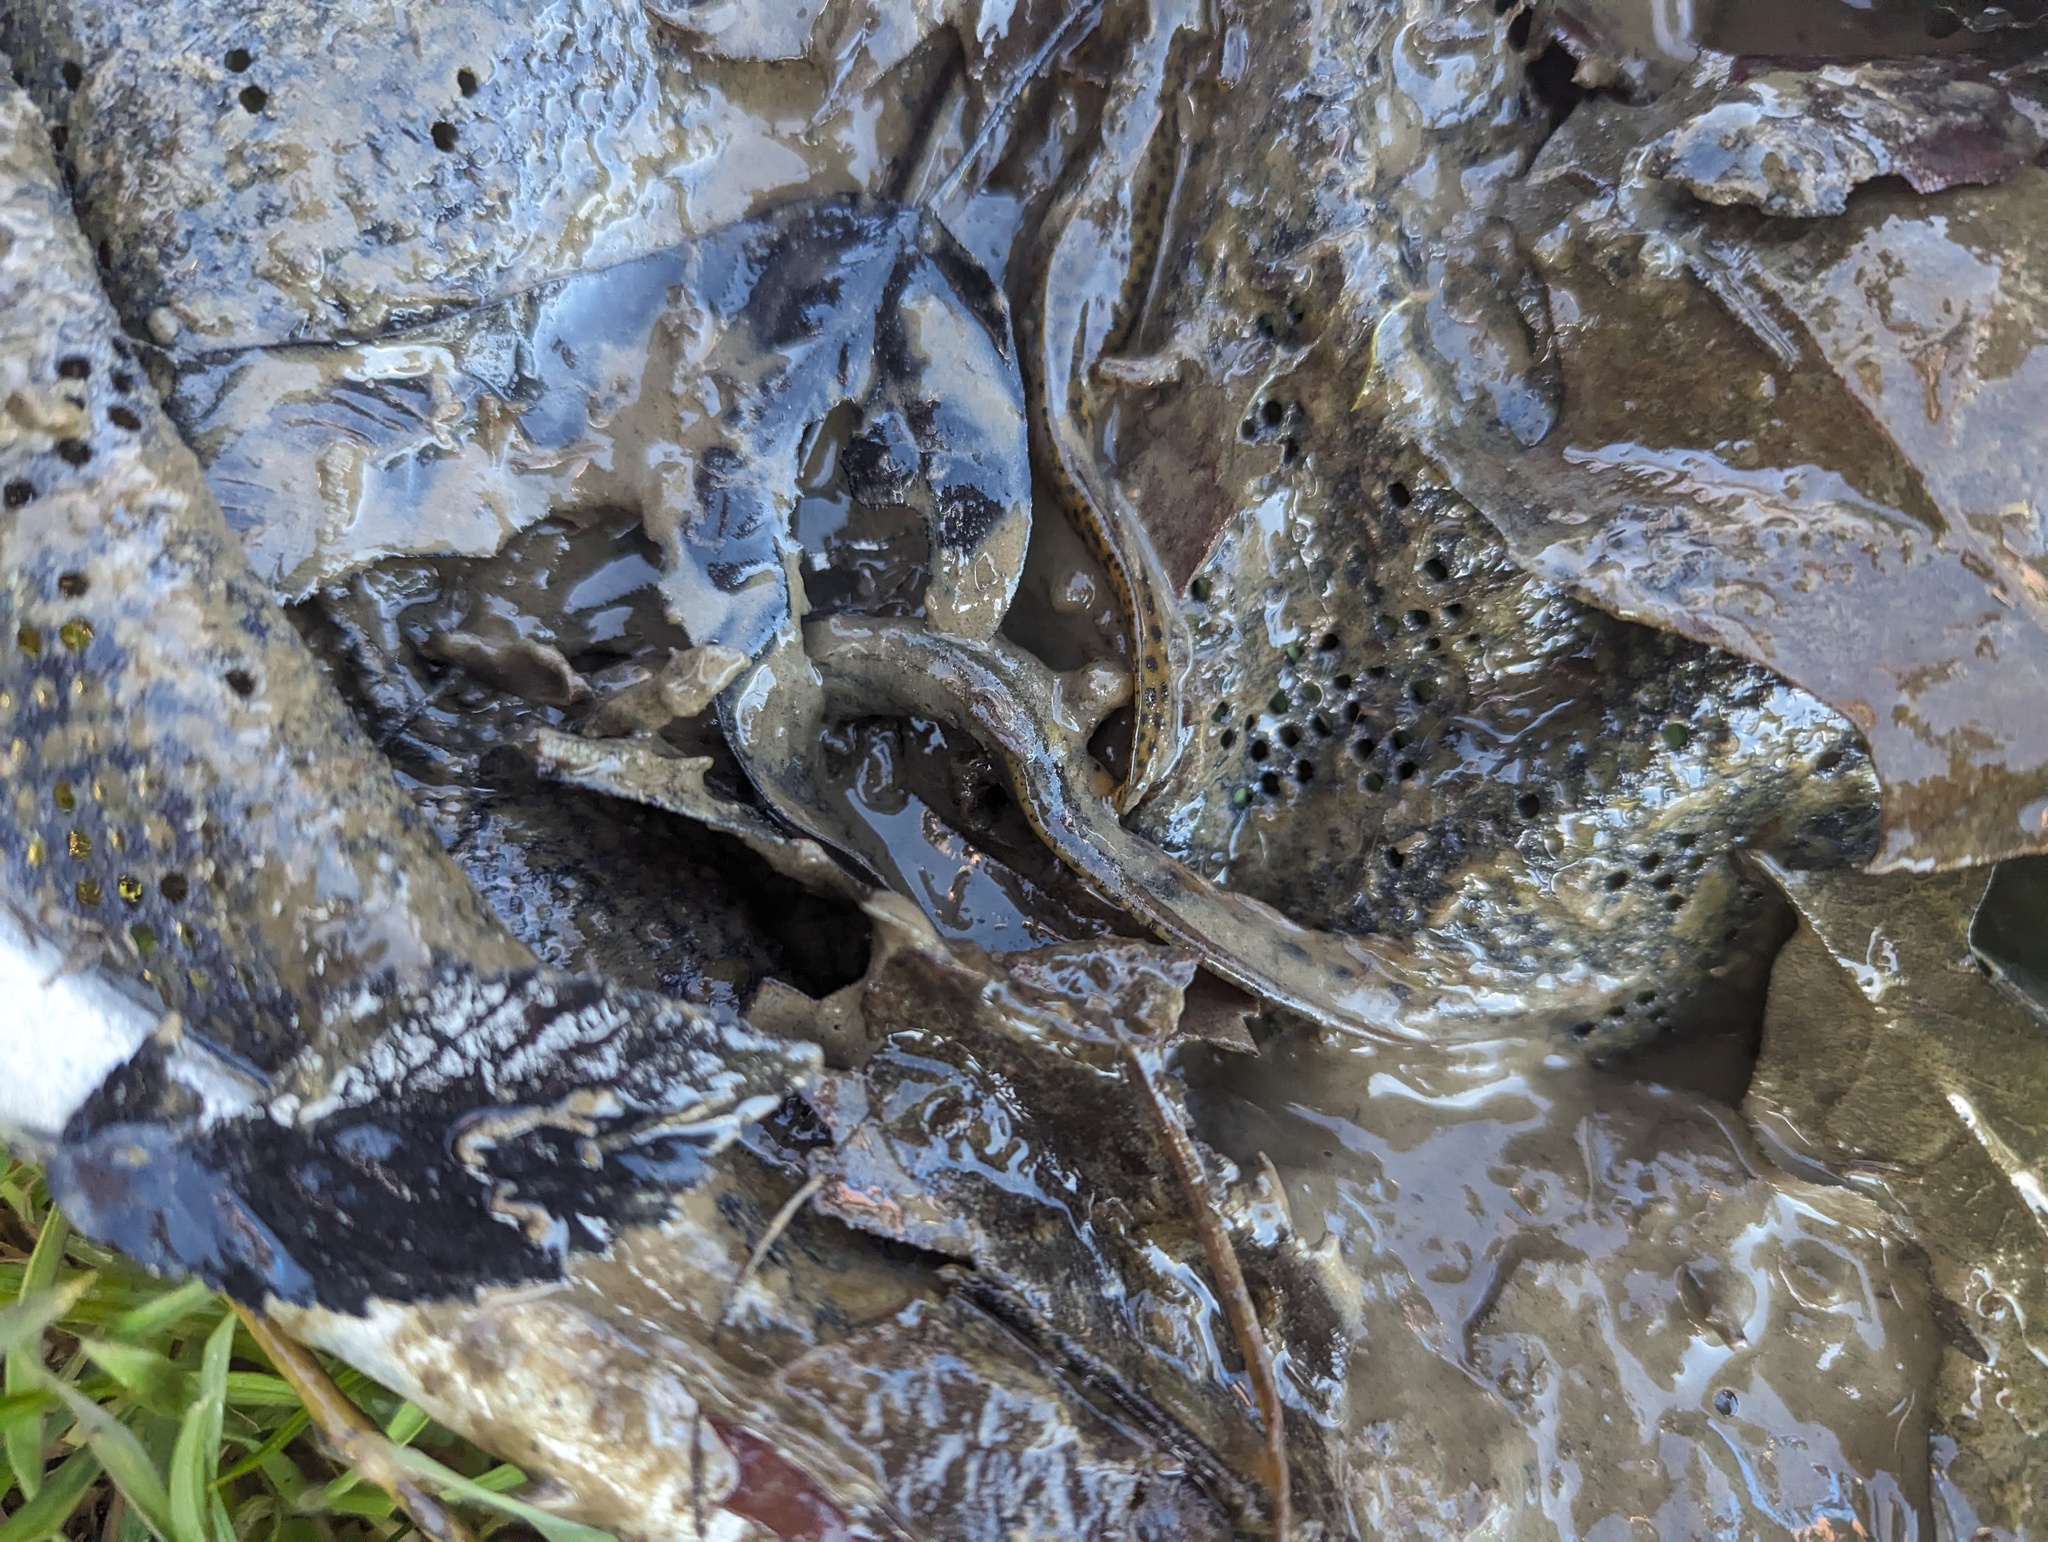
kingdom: Animalia
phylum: Chordata
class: Amphibia
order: Caudata
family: Salamandridae
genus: Notophthalmus
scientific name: Notophthalmus viridescens
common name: Eastern newt
